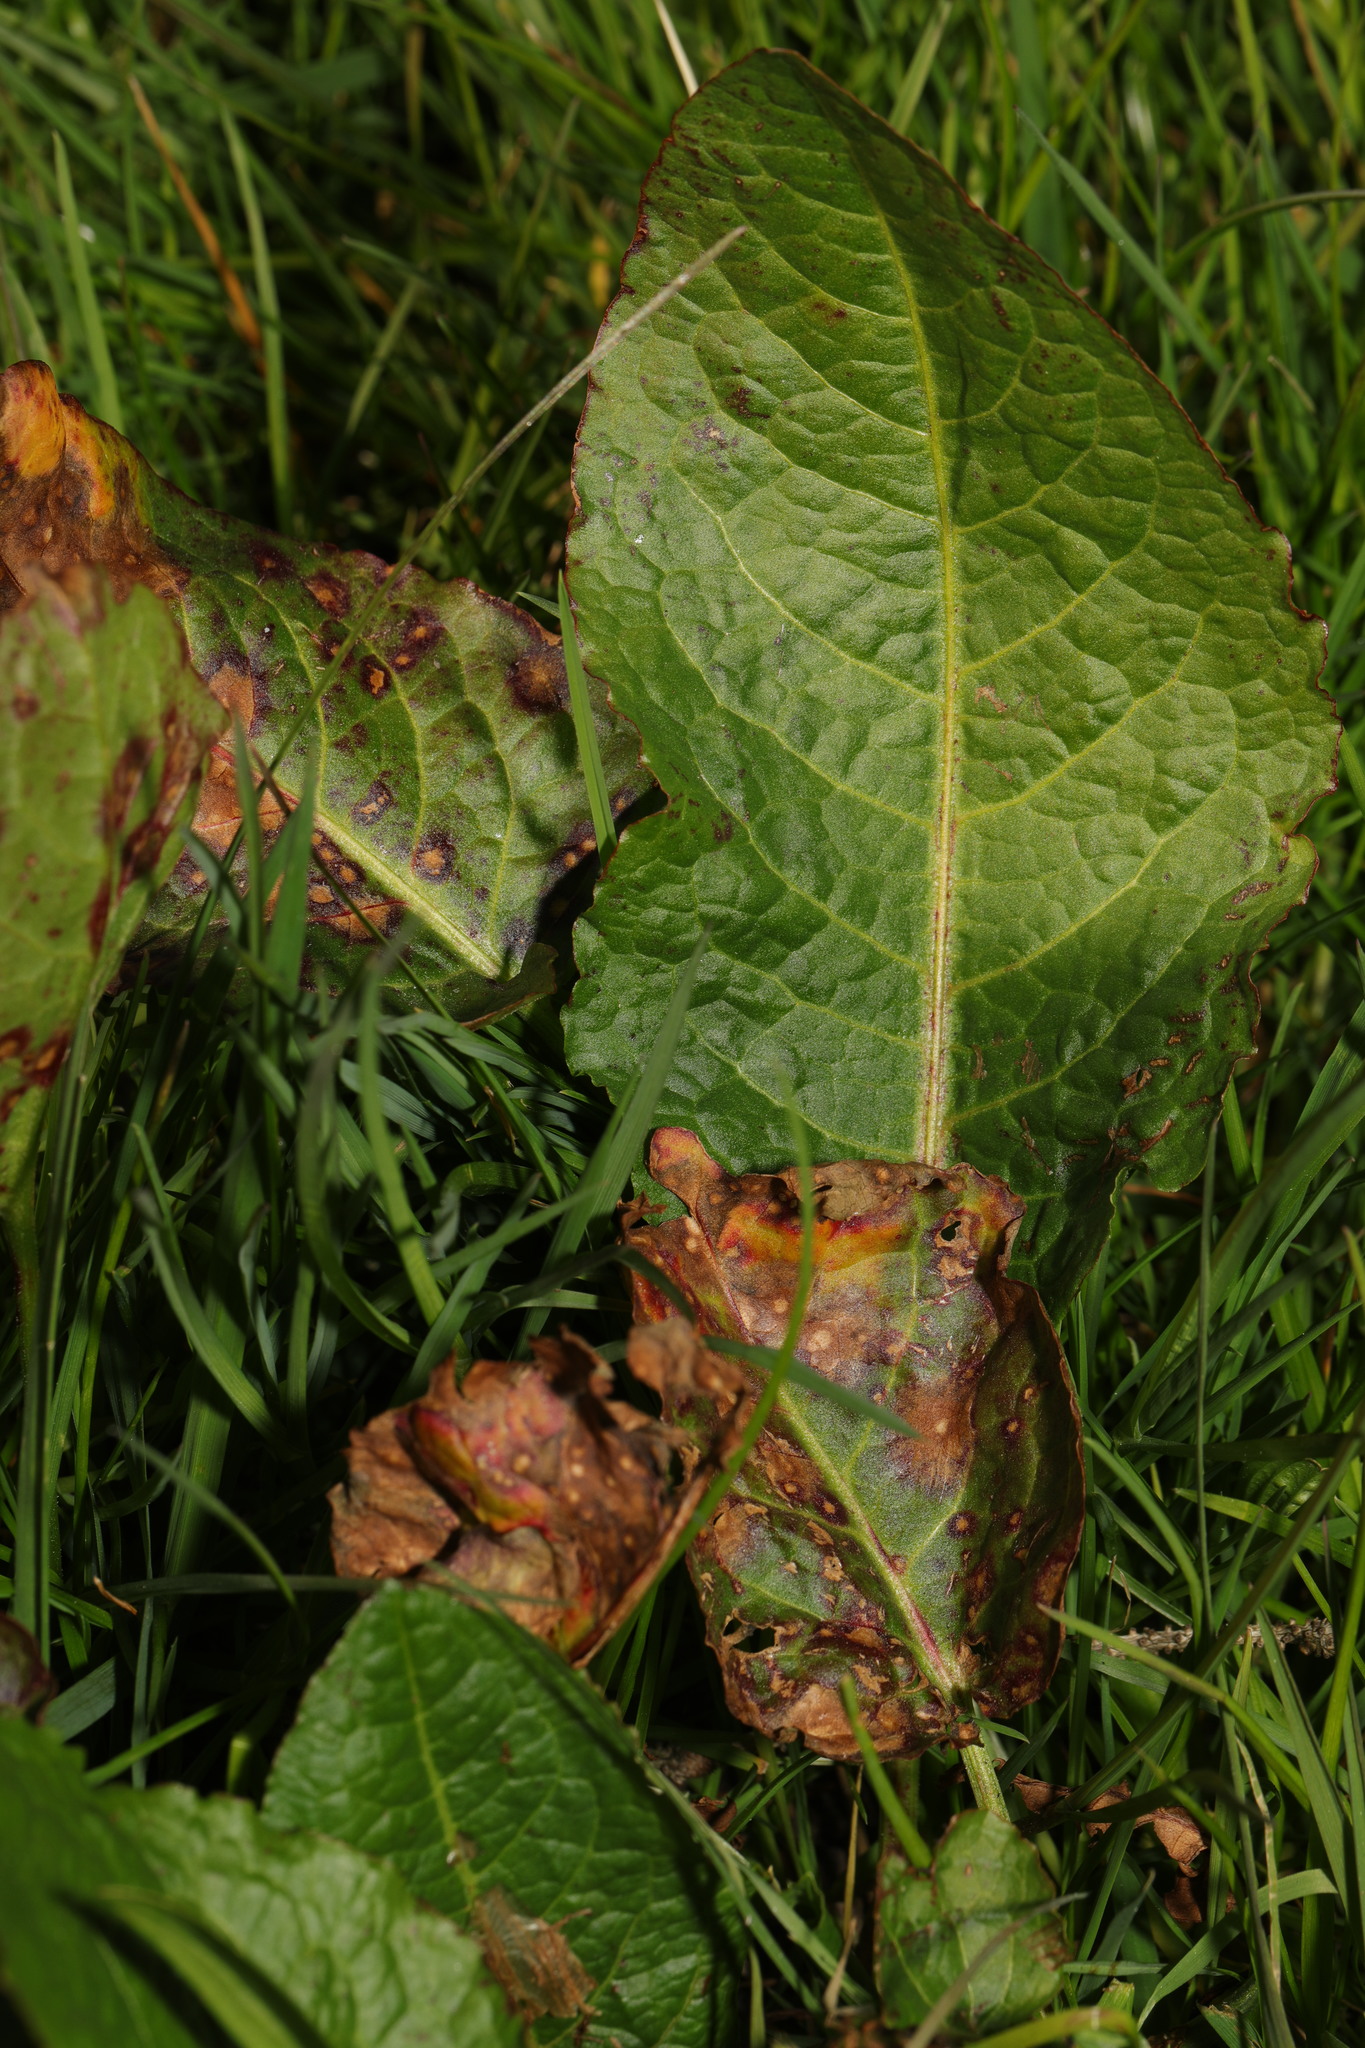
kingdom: Plantae
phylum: Tracheophyta
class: Magnoliopsida
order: Caryophyllales
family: Polygonaceae
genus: Rumex
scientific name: Rumex obtusifolius
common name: Bitter dock
